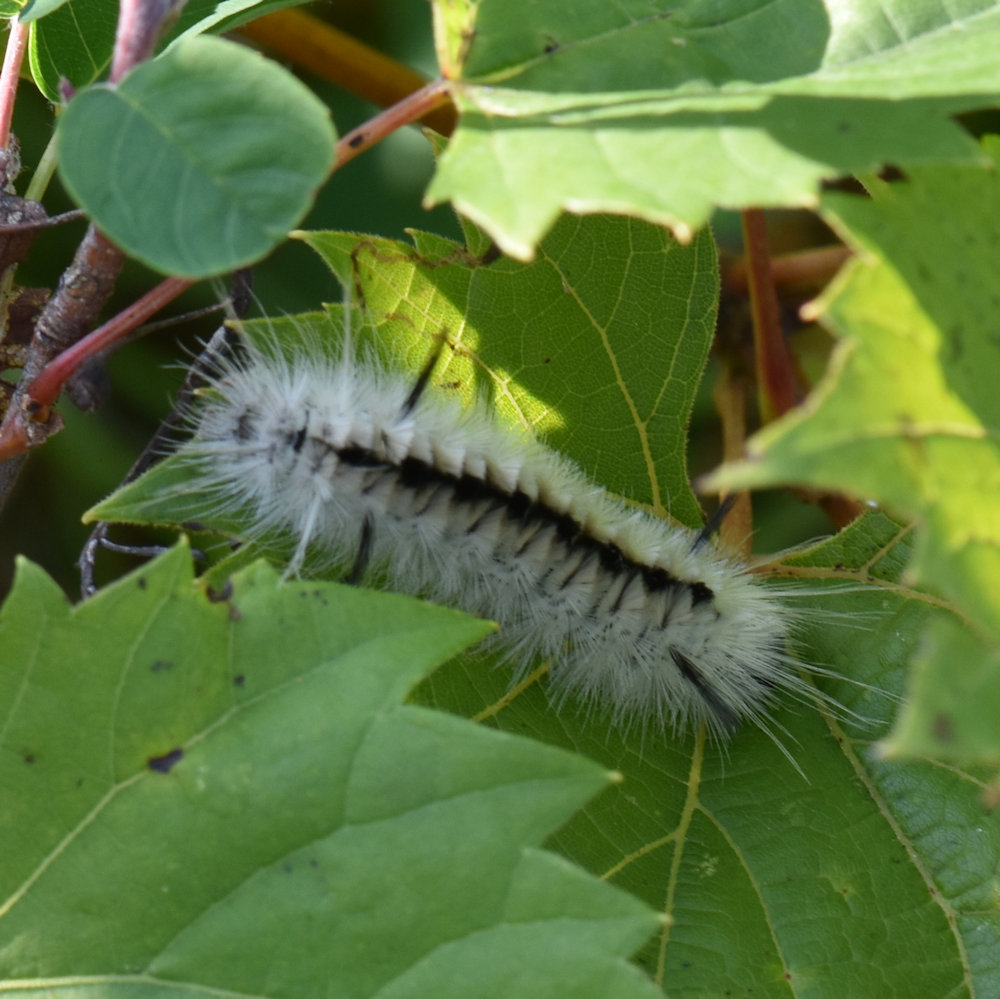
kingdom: Animalia
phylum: Arthropoda
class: Insecta
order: Lepidoptera
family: Erebidae
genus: Lophocampa
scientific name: Lophocampa caryae
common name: Hickory tussock moth
